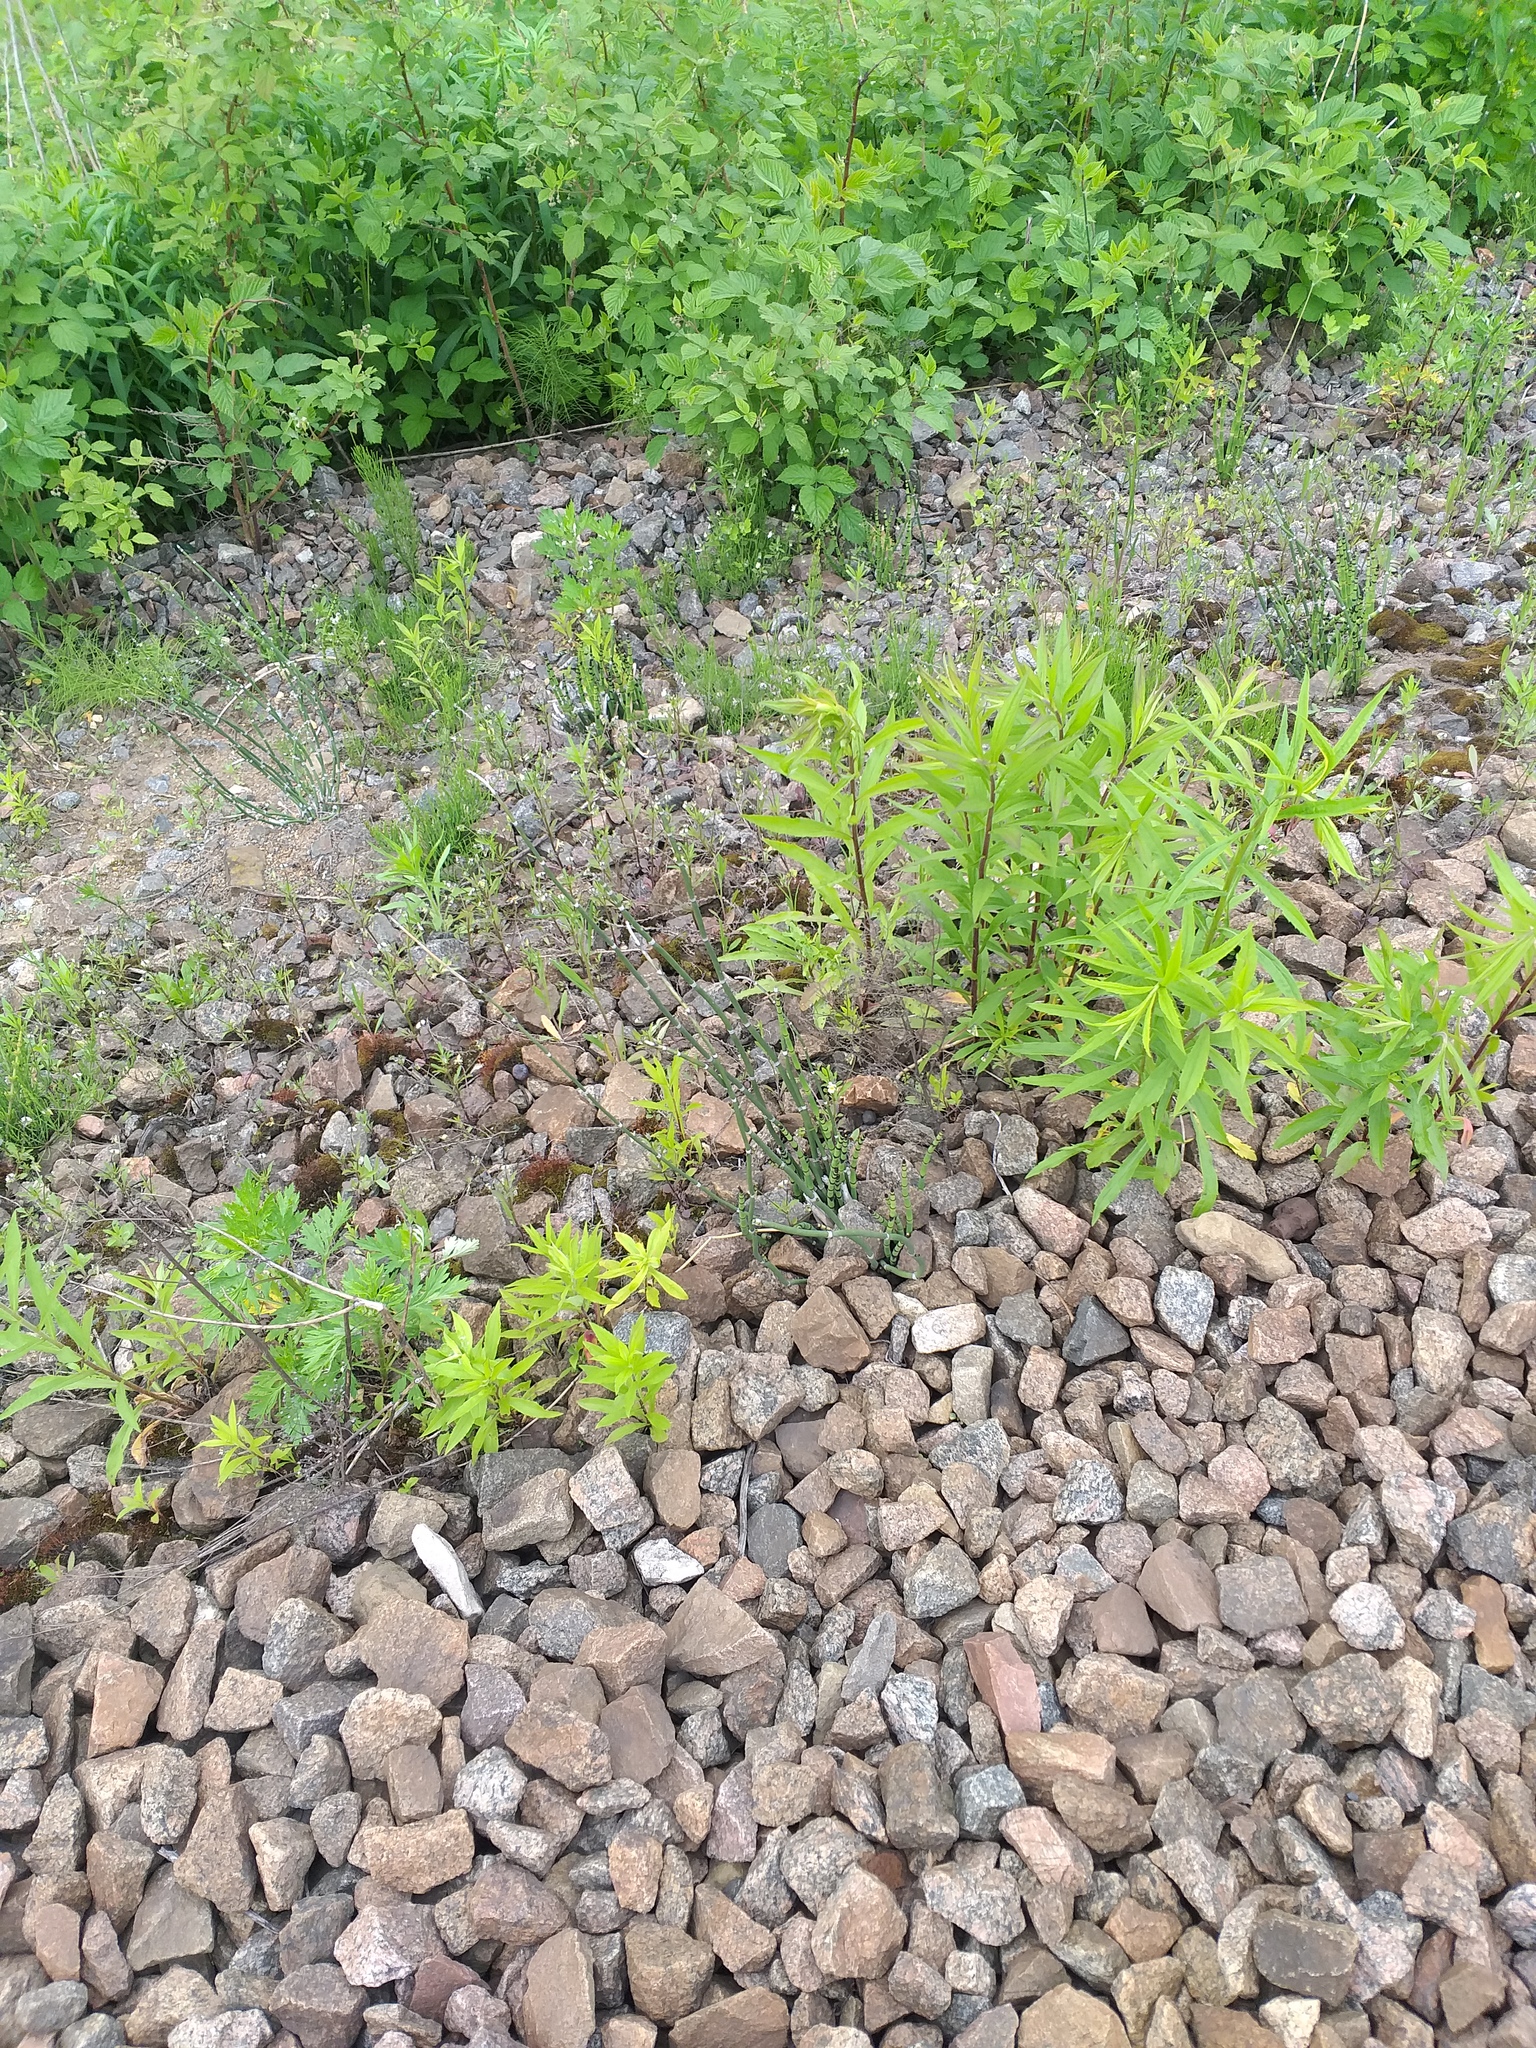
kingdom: Plantae
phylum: Tracheophyta
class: Polypodiopsida
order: Equisetales
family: Equisetaceae
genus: Equisetum
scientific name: Equisetum hyemale
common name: Rough horsetail
